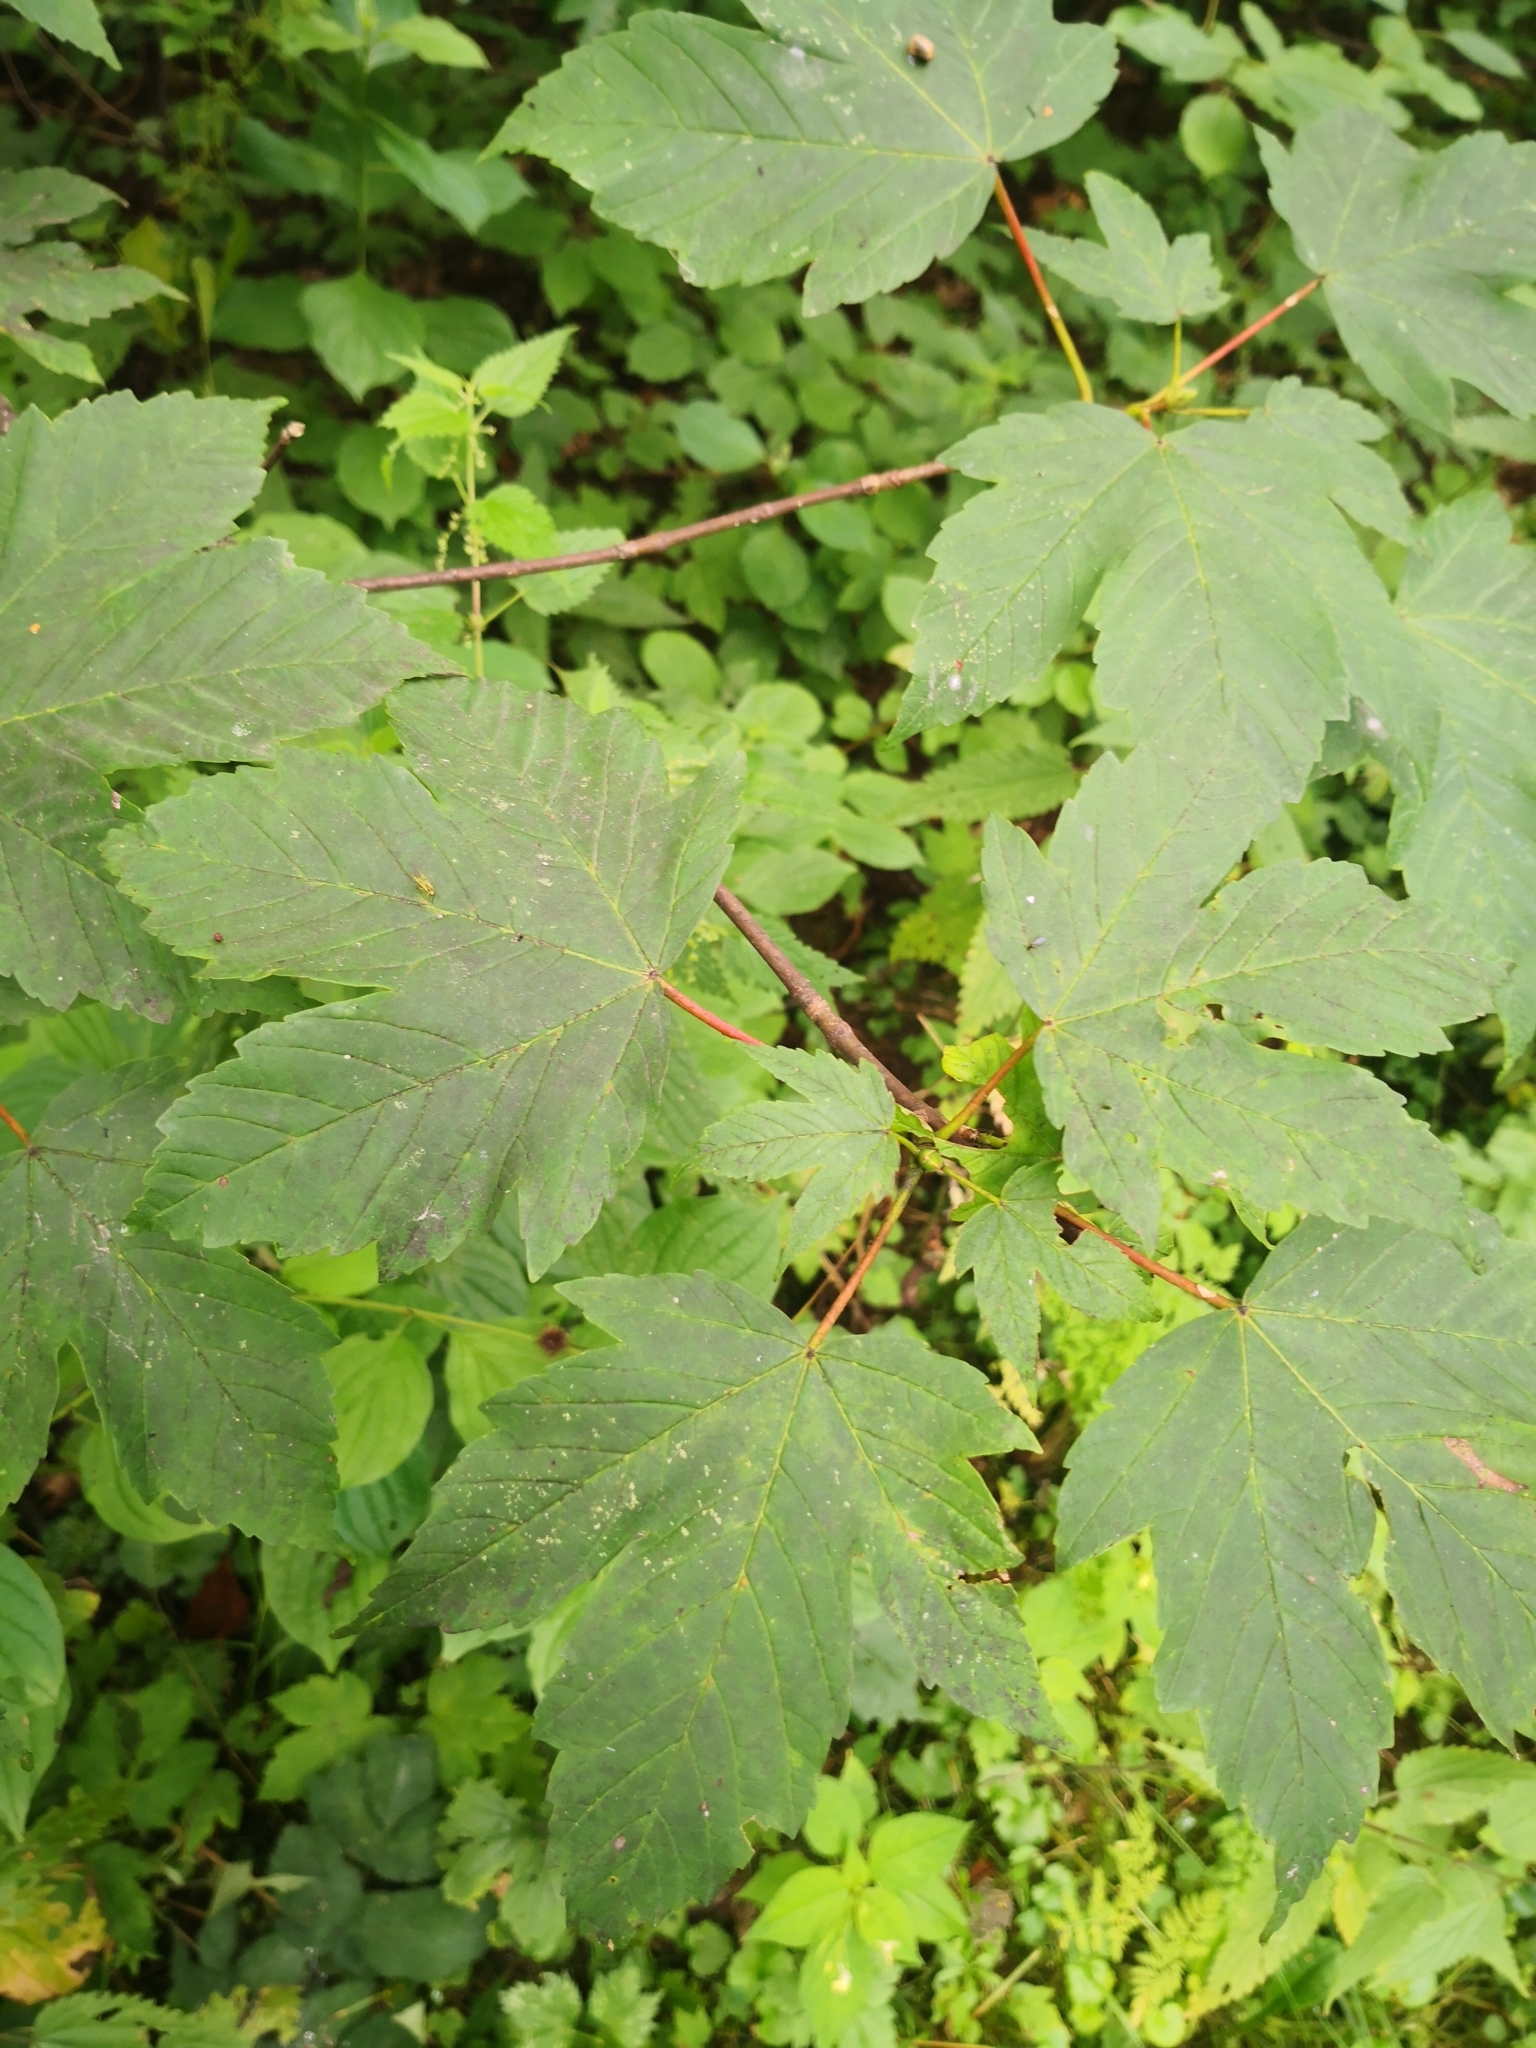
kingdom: Plantae
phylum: Tracheophyta
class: Magnoliopsida
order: Sapindales
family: Sapindaceae
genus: Acer
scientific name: Acer pseudoplatanus
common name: Sycamore
